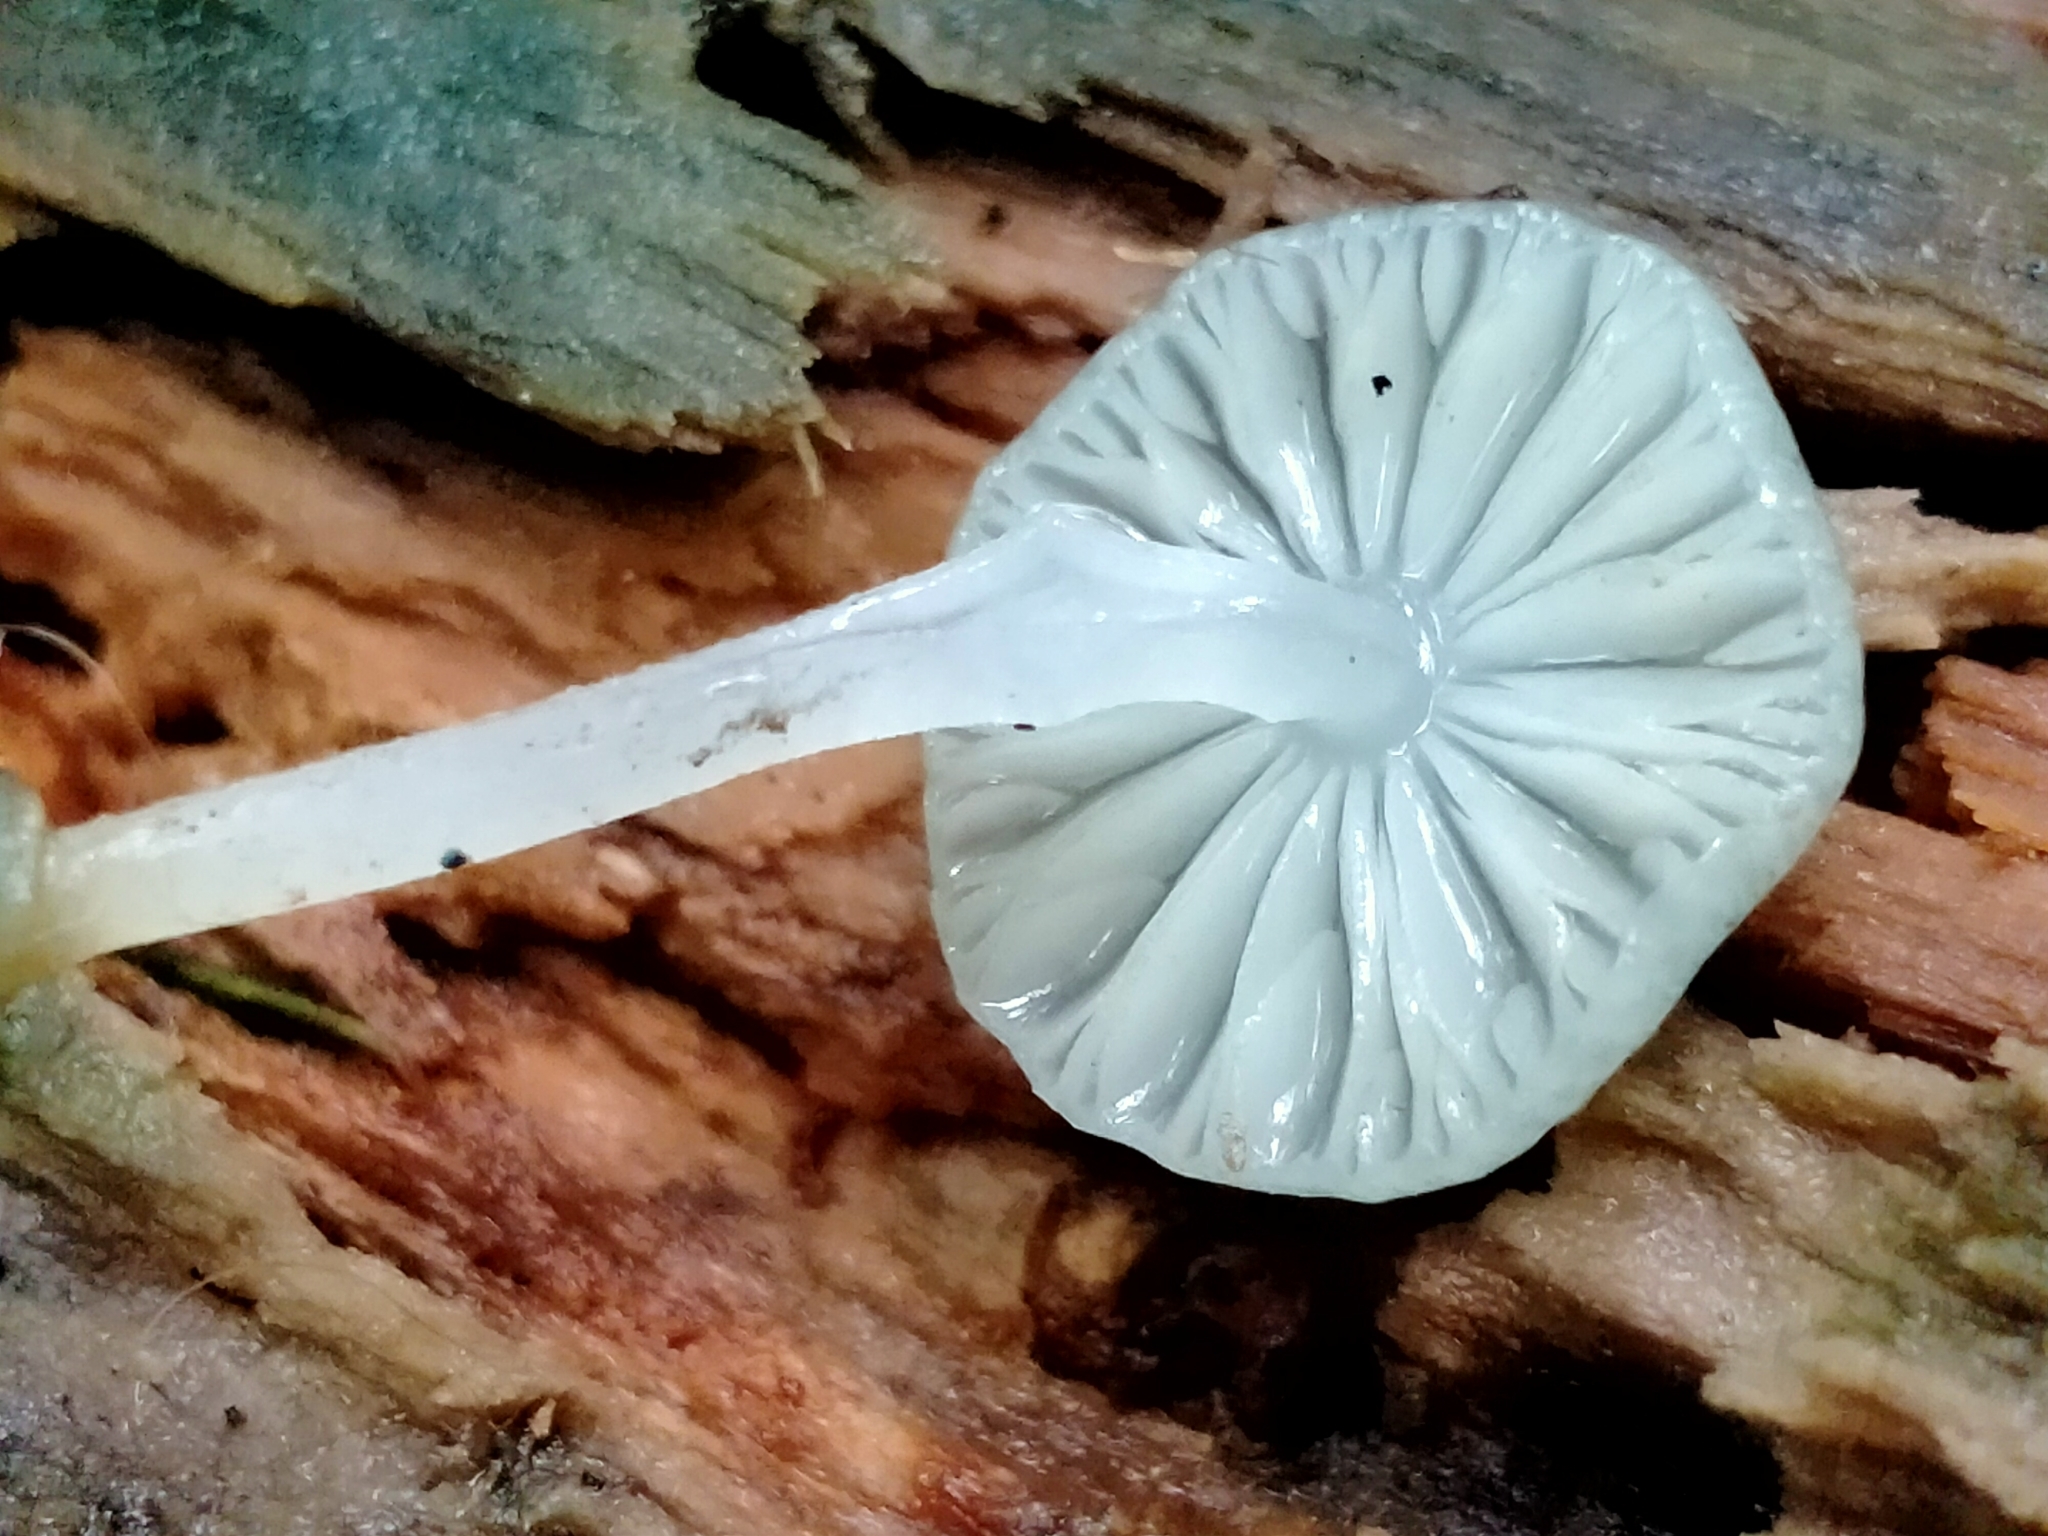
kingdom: Fungi
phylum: Basidiomycota
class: Agaricomycetes
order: Agaricales
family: Mycenaceae
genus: Mycena
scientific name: Mycena interrupta
